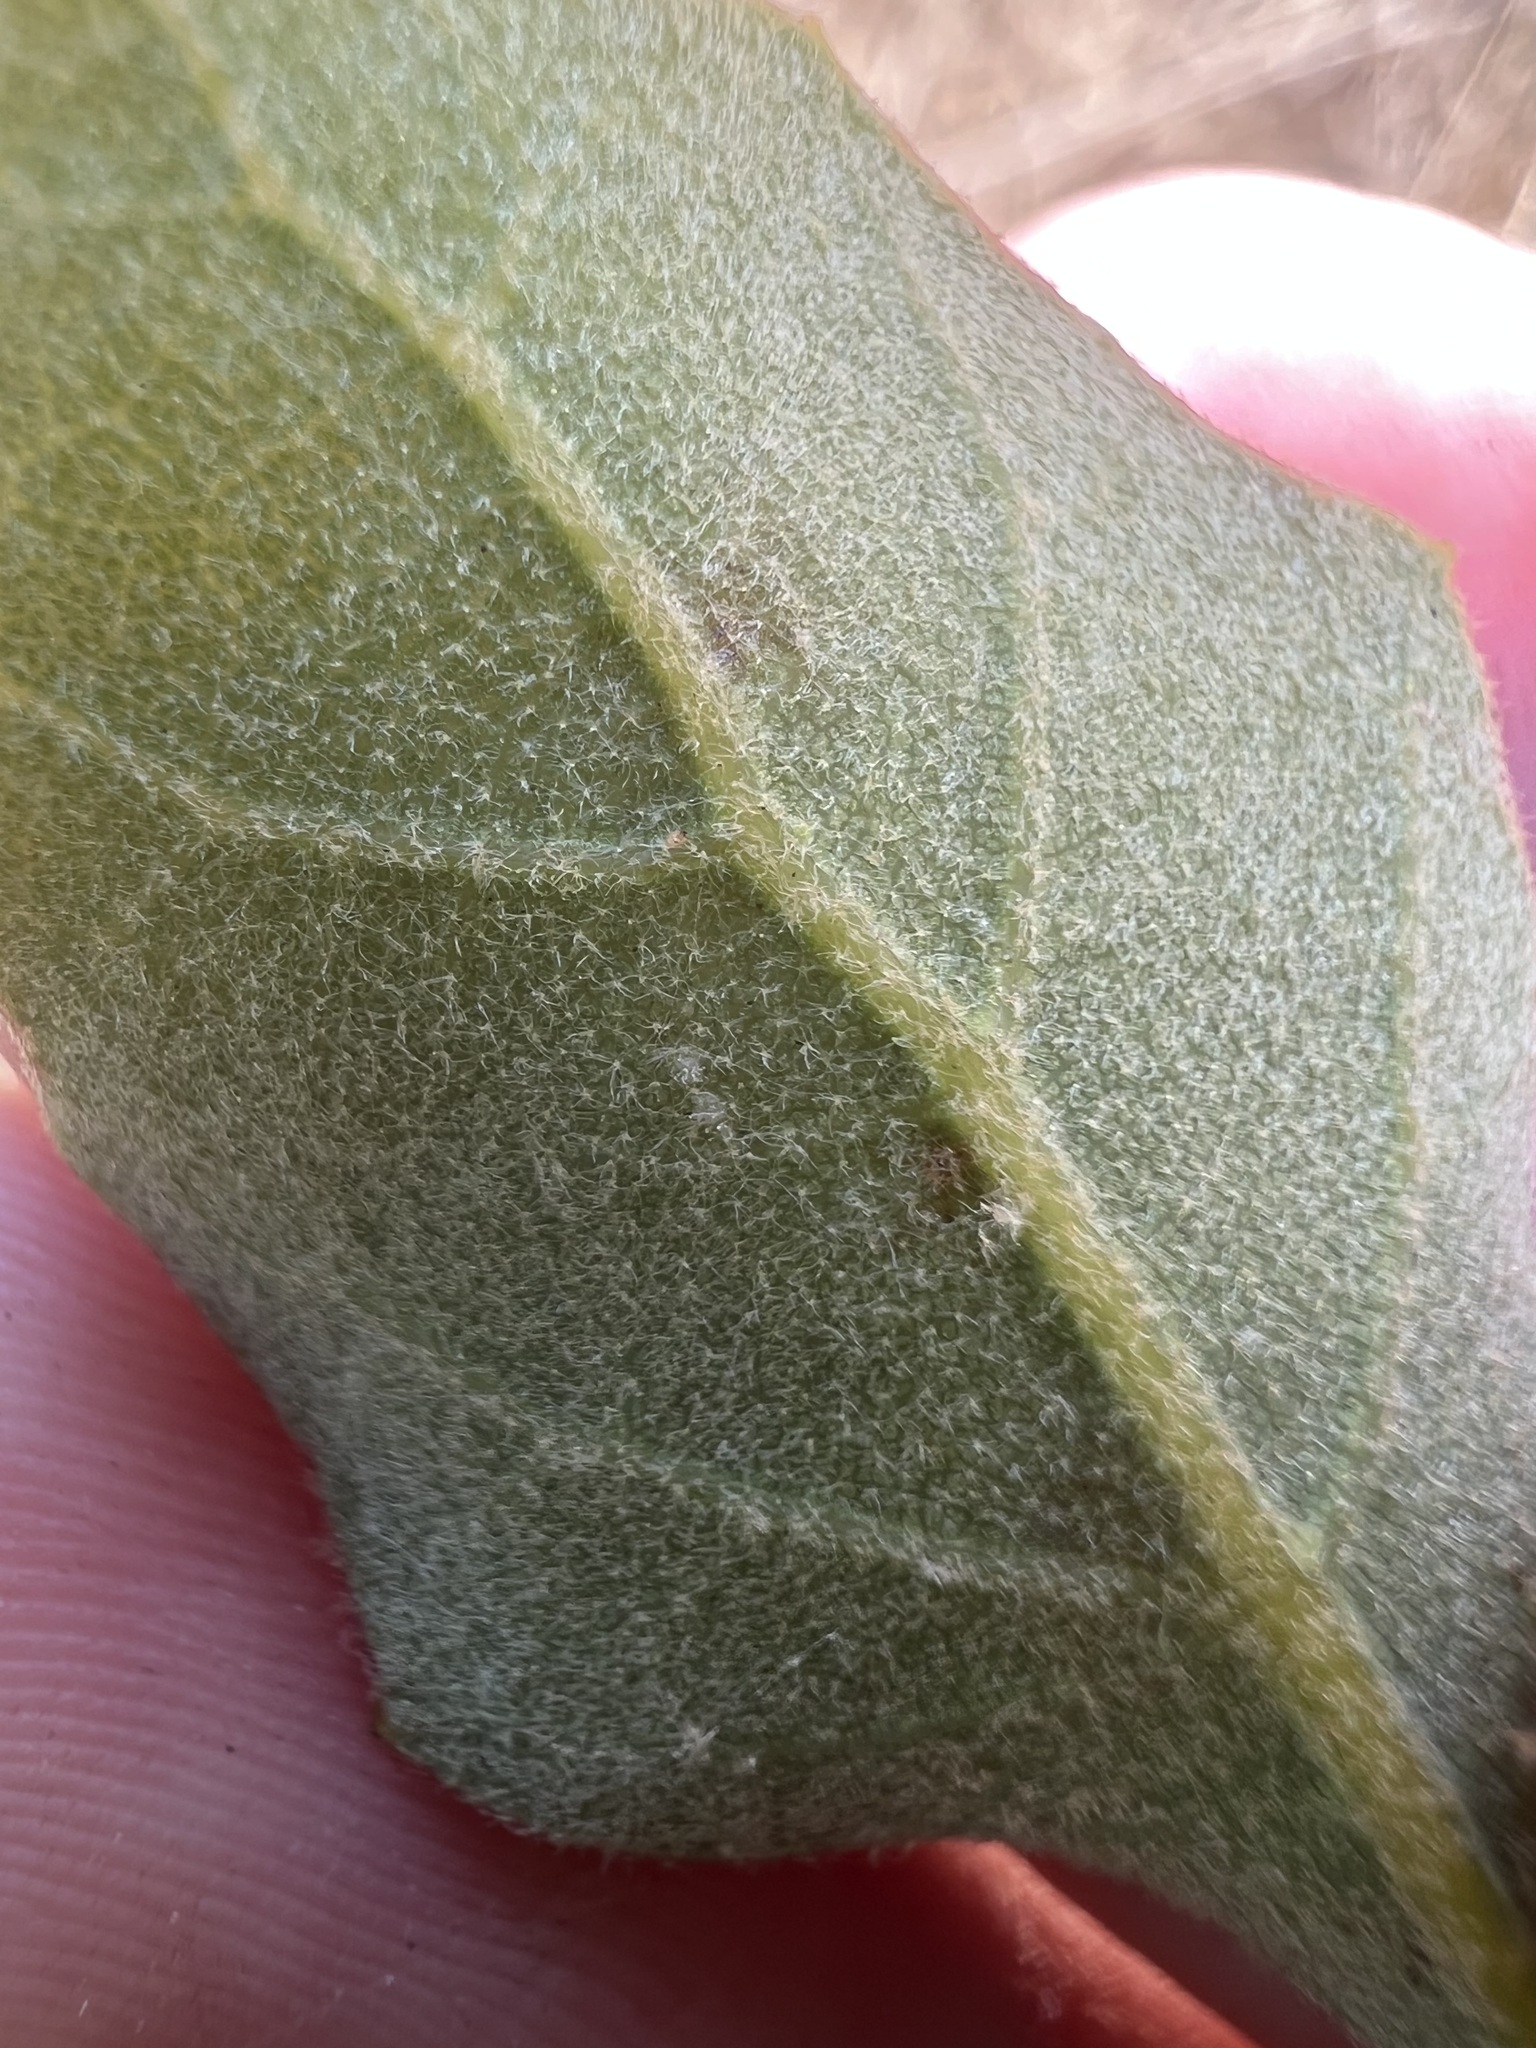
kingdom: Plantae
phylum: Tracheophyta
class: Magnoliopsida
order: Fagales
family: Fagaceae
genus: Quercus
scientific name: Quercus engelmannii
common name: Engelmann oak
